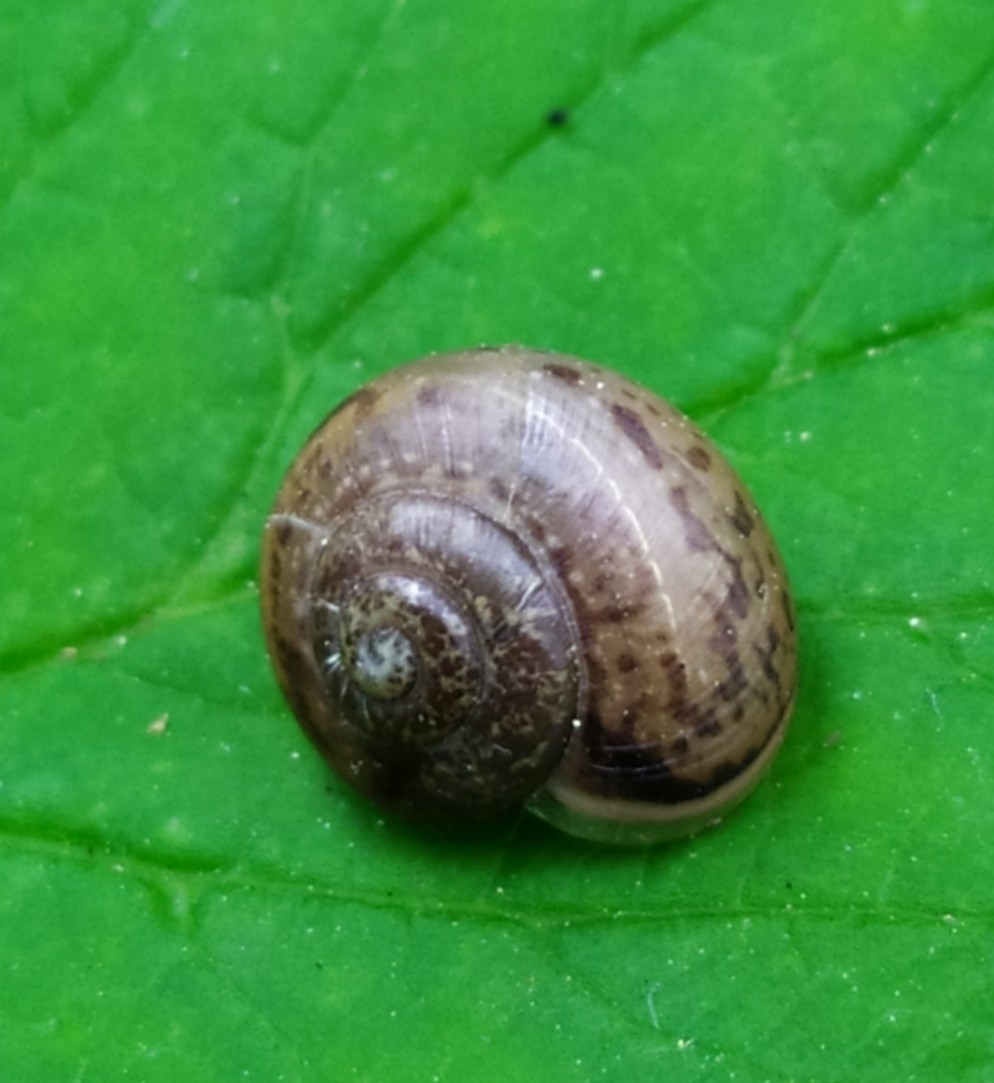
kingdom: Animalia
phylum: Mollusca
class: Gastropoda
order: Stylommatophora
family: Camaenidae
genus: Fruticicola
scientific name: Fruticicola fruticum
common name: Bush snail
